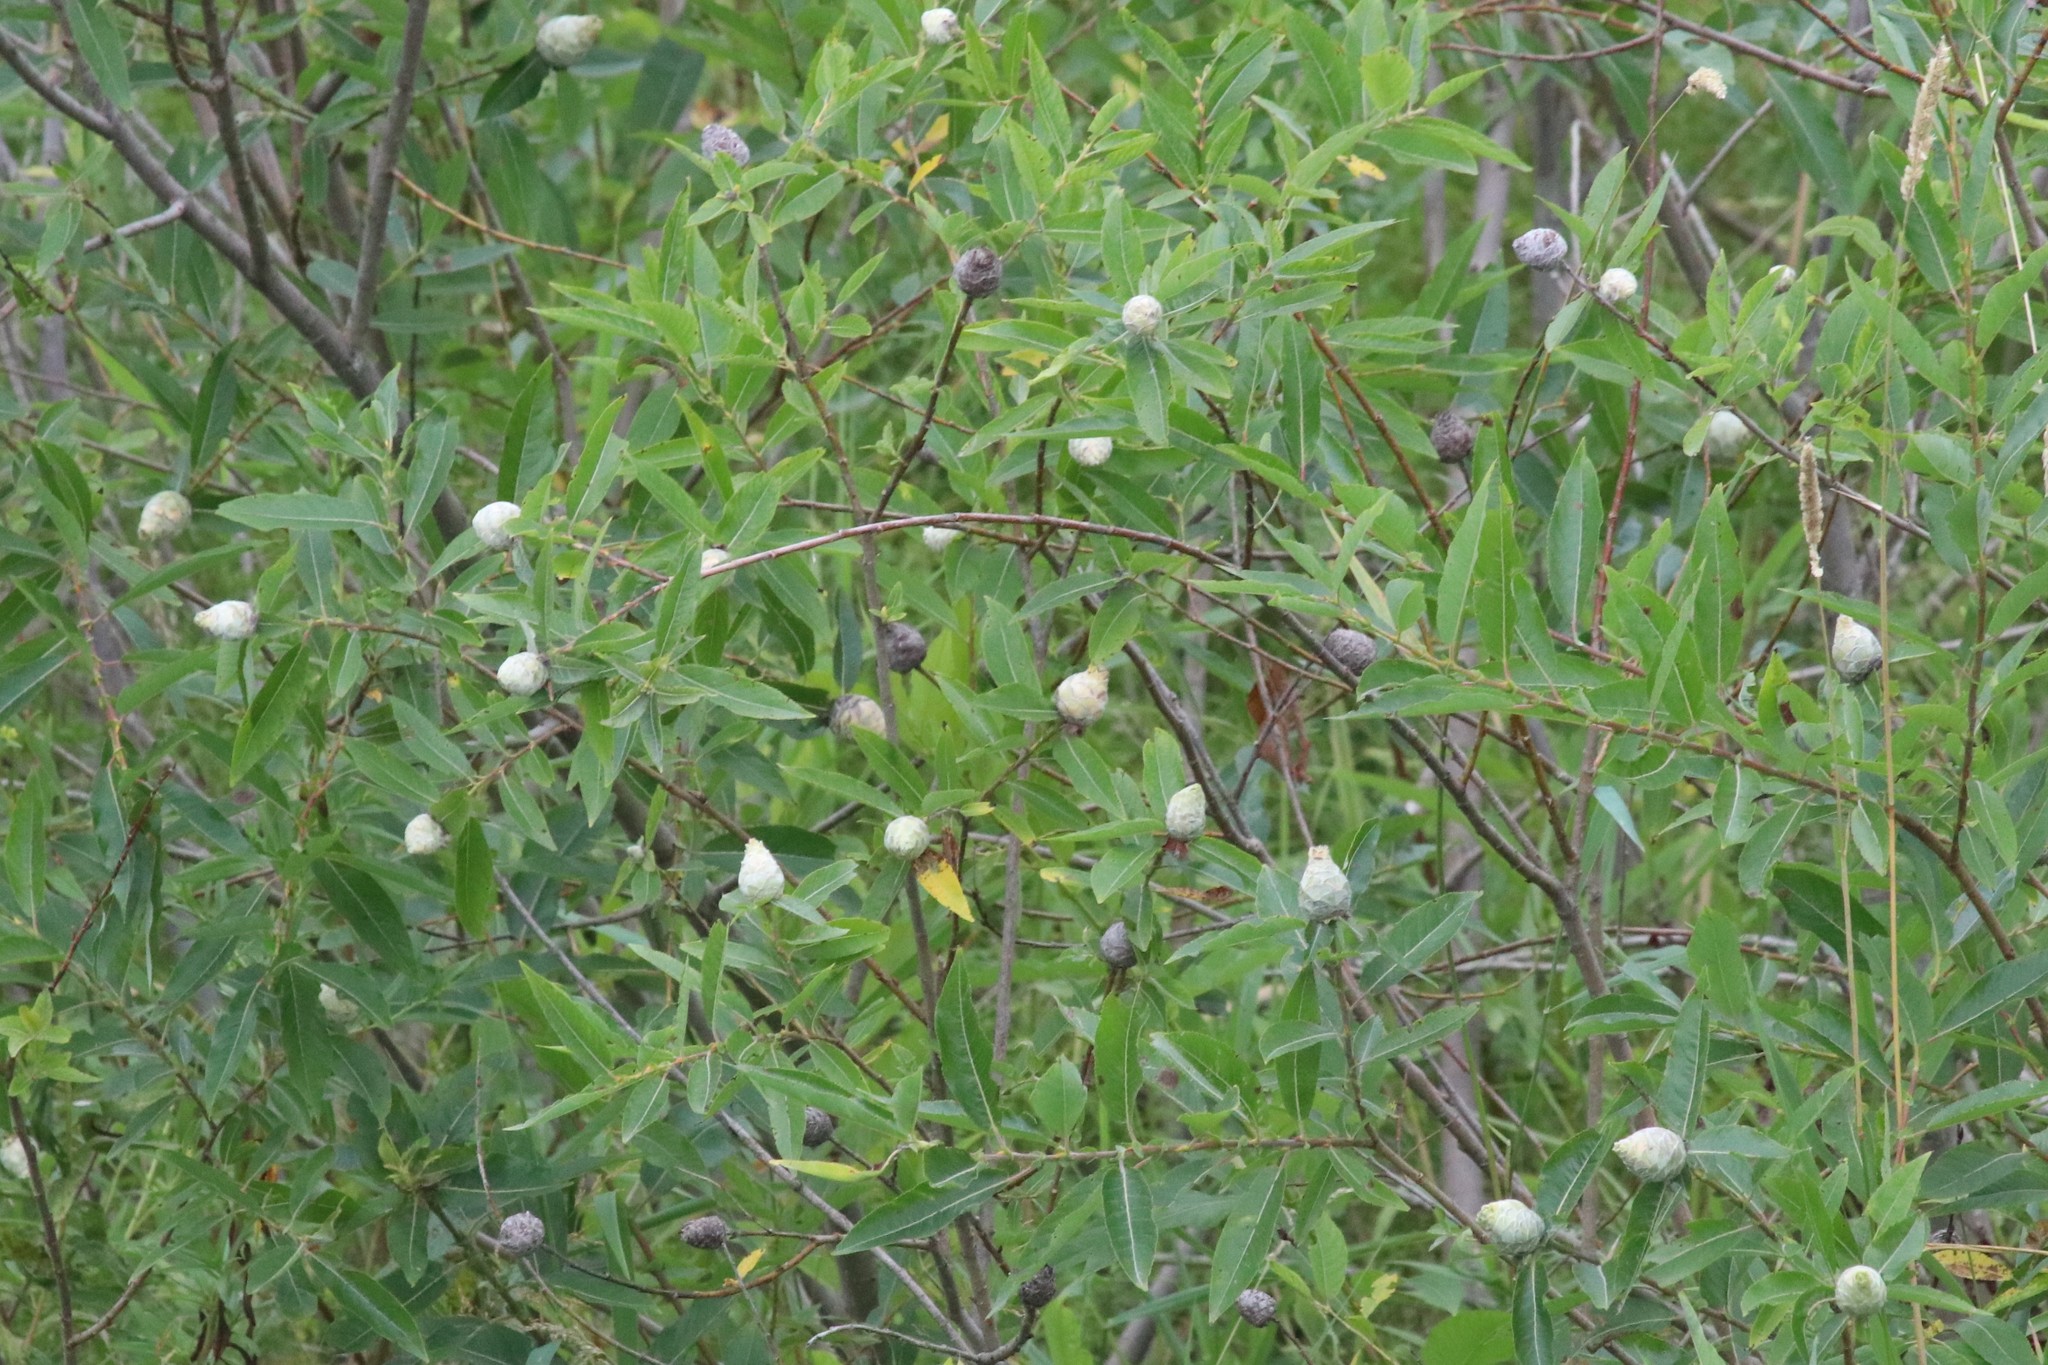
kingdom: Animalia
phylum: Arthropoda
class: Insecta
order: Diptera
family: Cecidomyiidae
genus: Rabdophaga
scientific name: Rabdophaga strobiloides
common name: Willow pinecone gall midge
